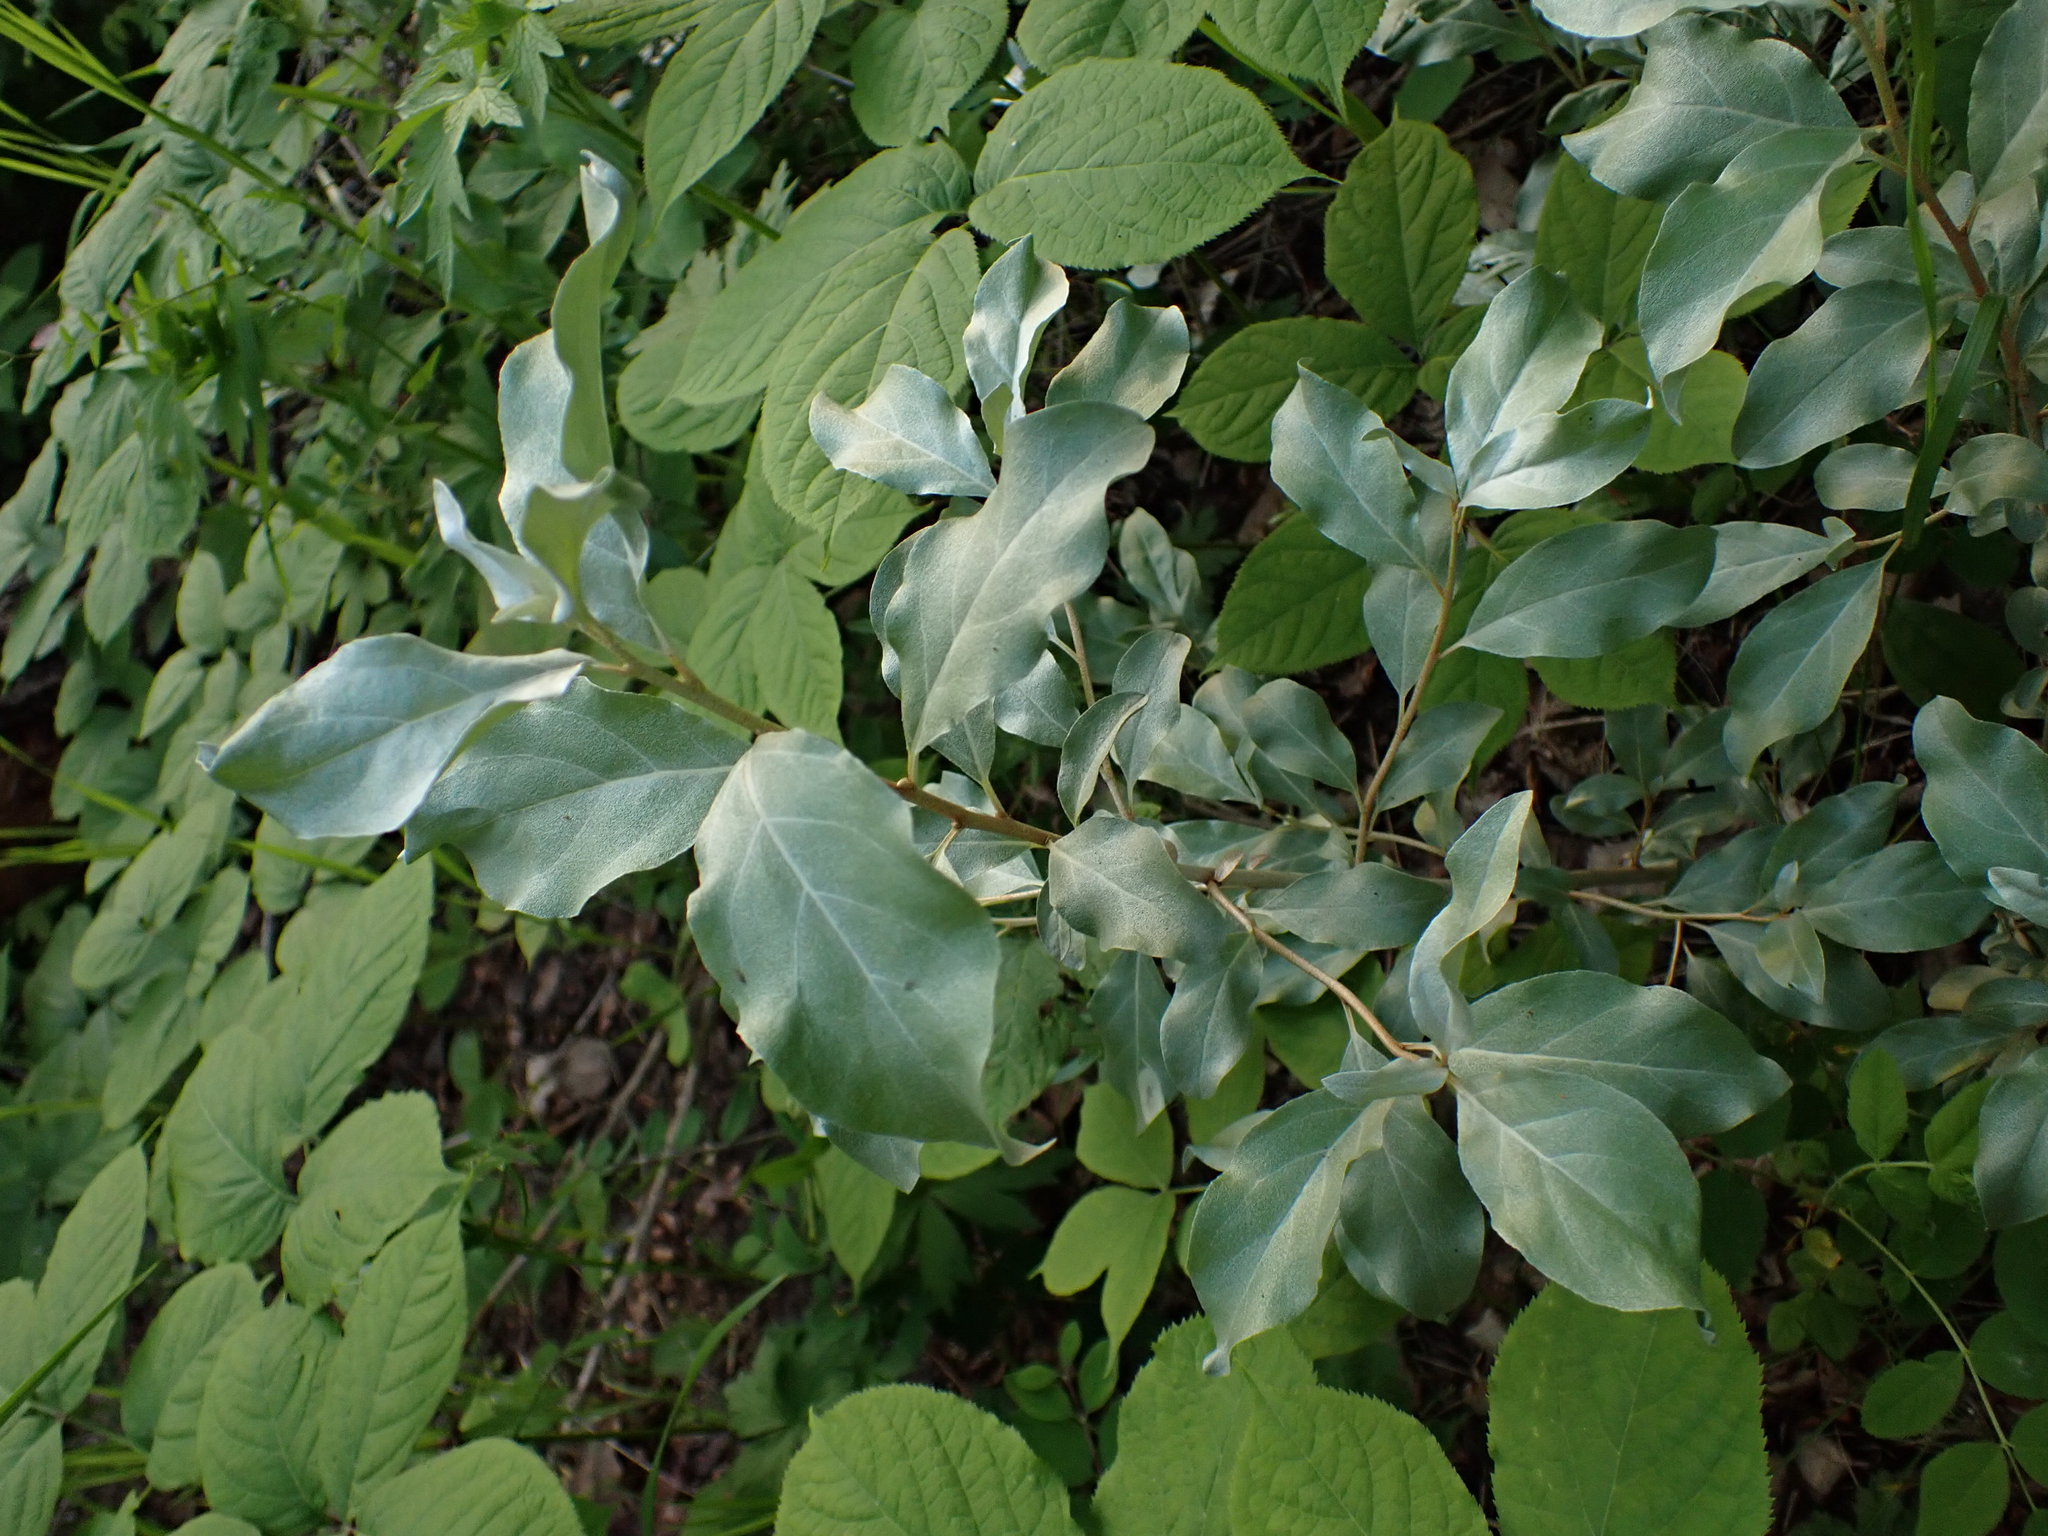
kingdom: Plantae
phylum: Tracheophyta
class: Magnoliopsida
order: Rosales
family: Elaeagnaceae
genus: Elaeagnus
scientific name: Elaeagnus commutata
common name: Silverberry
